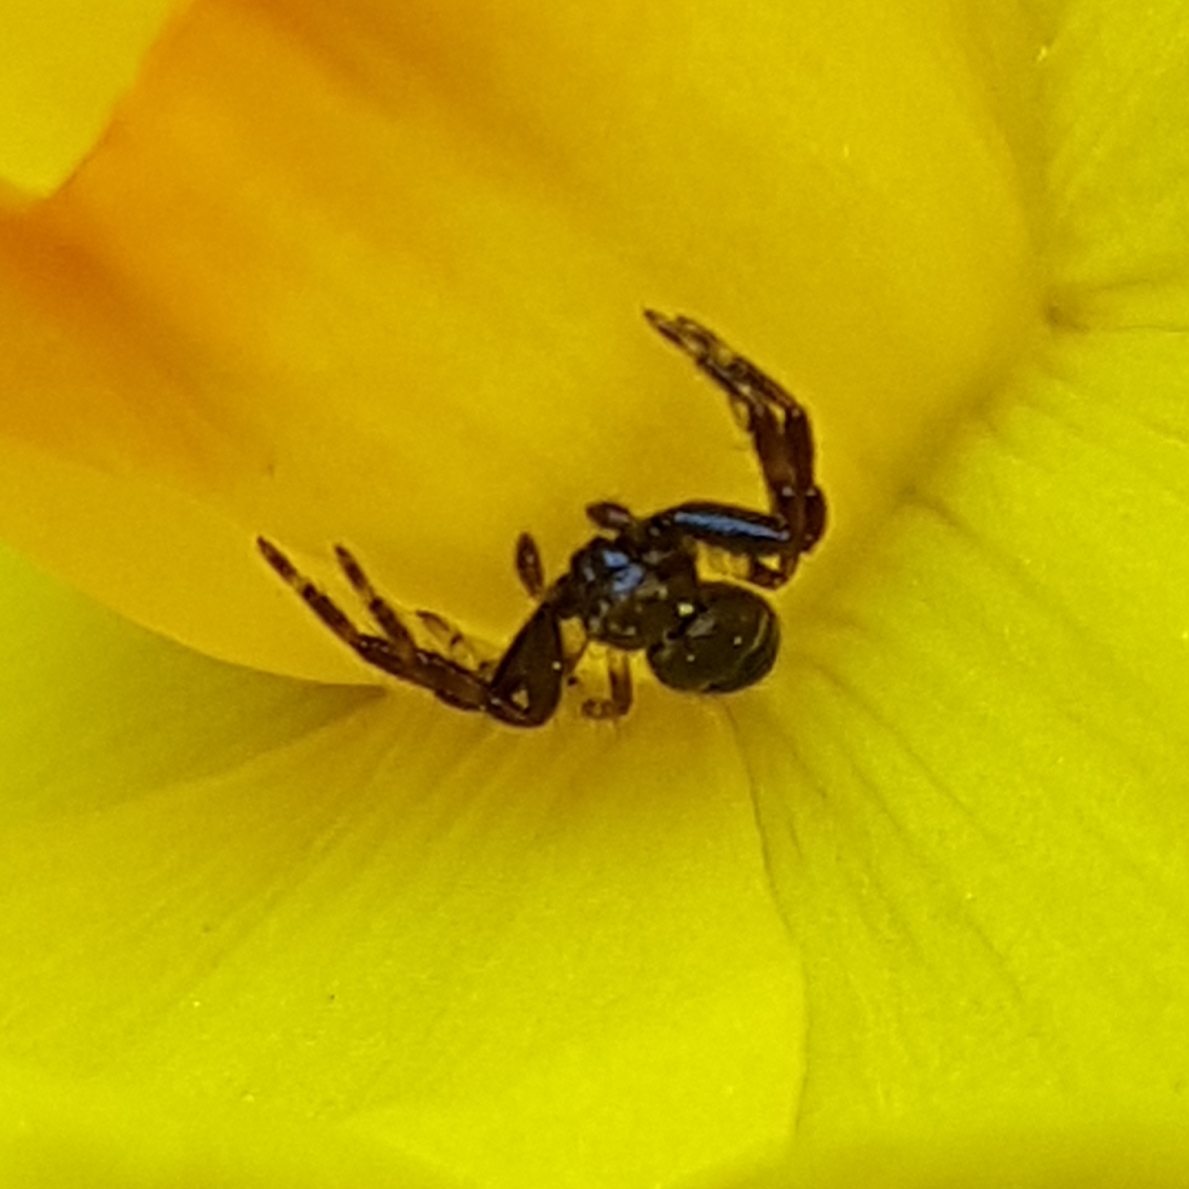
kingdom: Animalia
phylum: Arthropoda
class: Arachnida
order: Araneae
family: Thomisidae
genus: Synema
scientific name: Synema globosum
